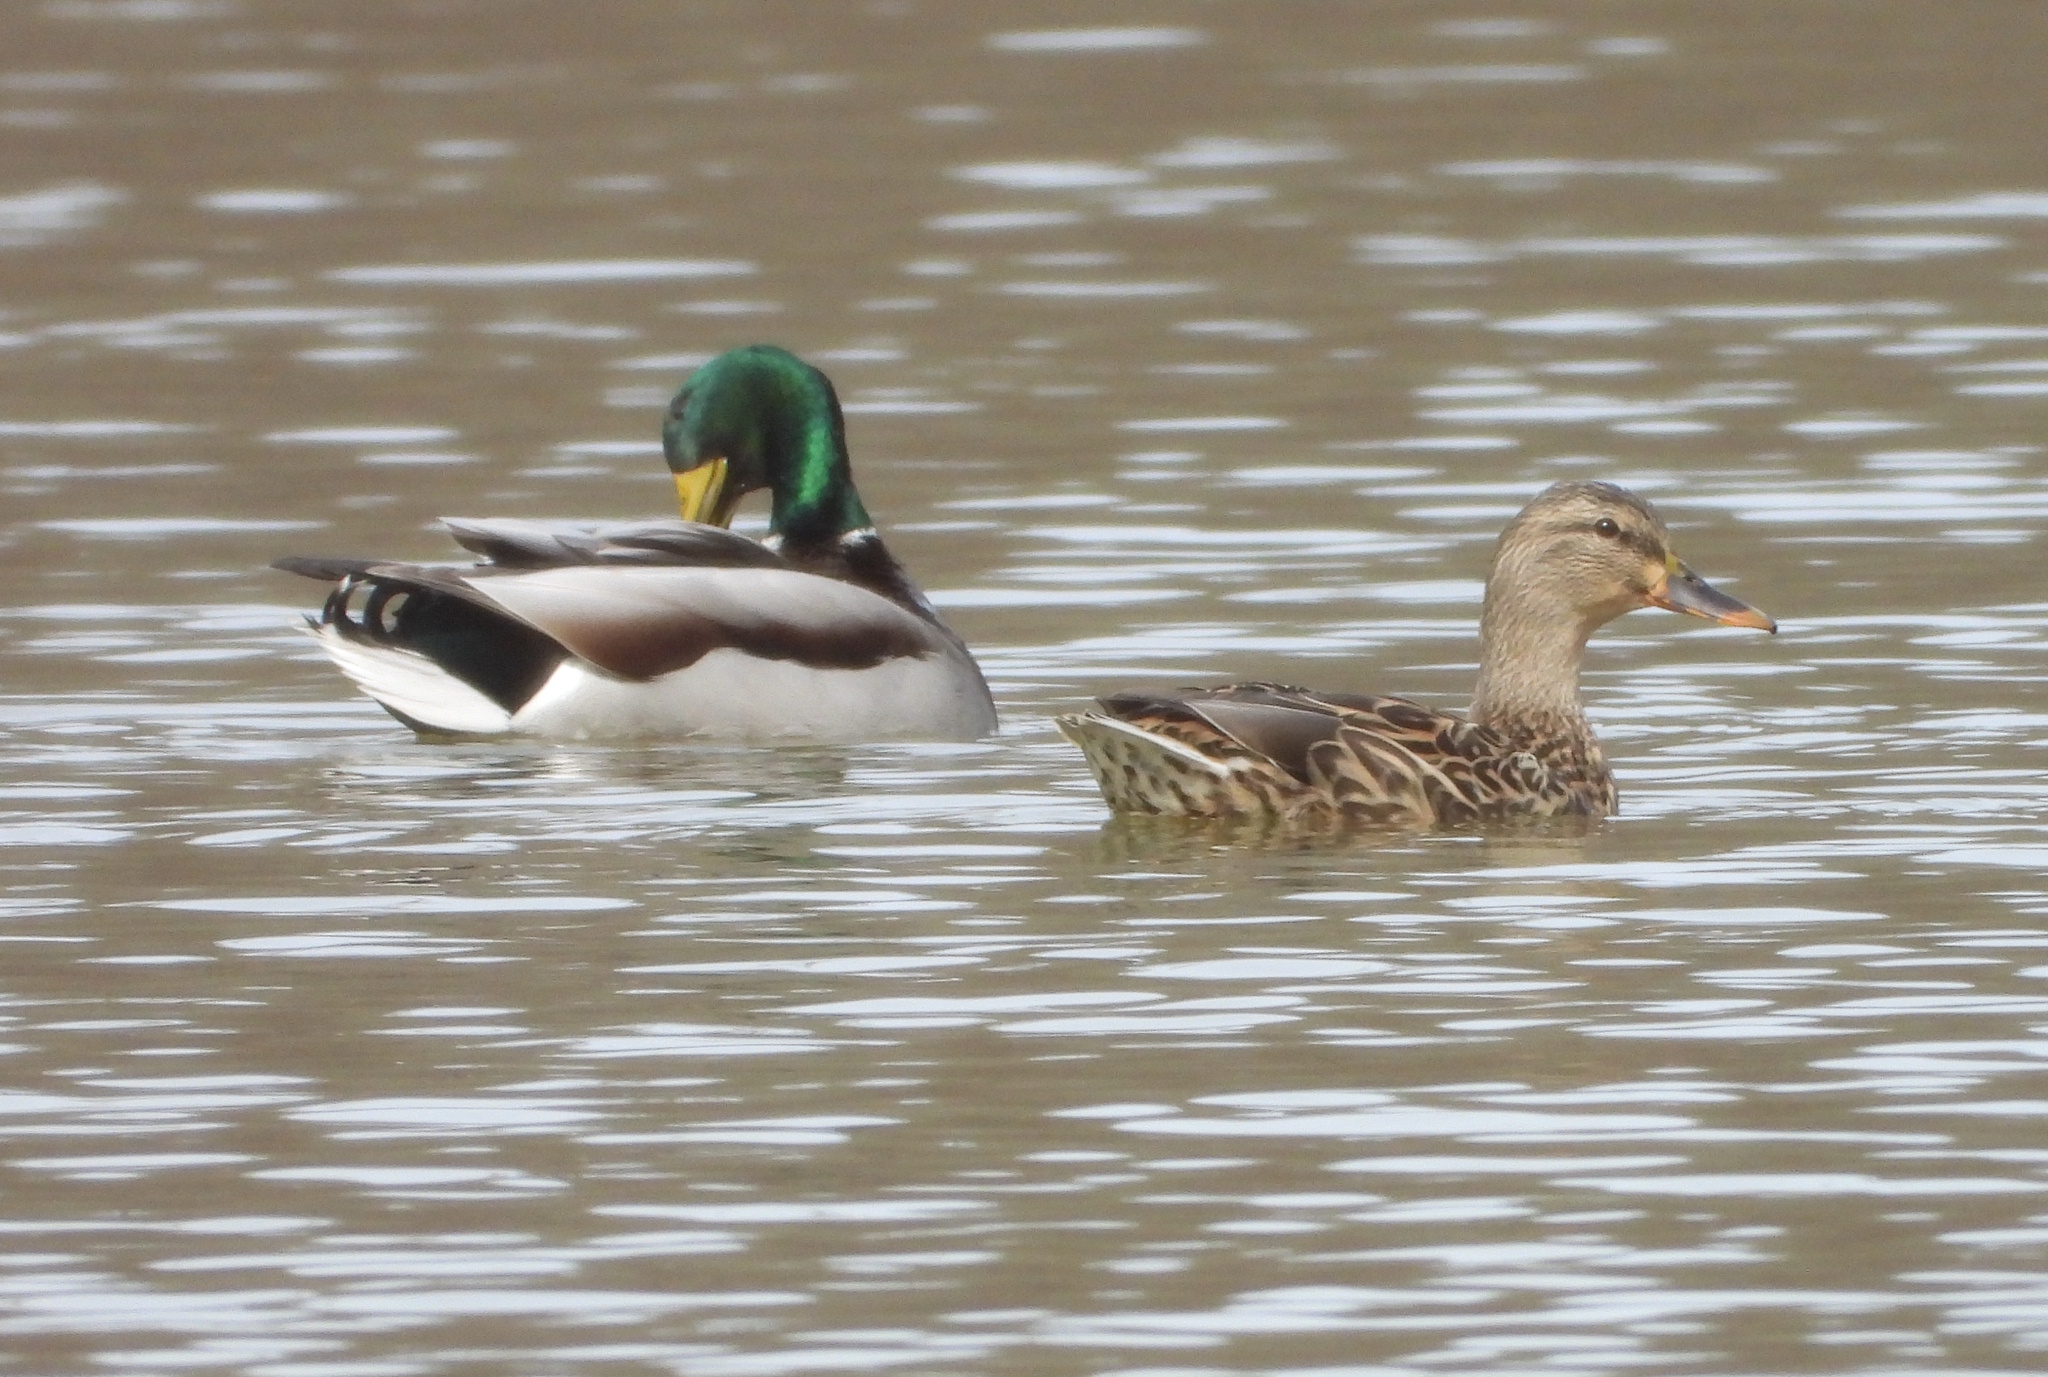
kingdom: Animalia
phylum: Chordata
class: Aves
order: Anseriformes
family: Anatidae
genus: Anas
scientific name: Anas platyrhynchos
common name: Mallard
